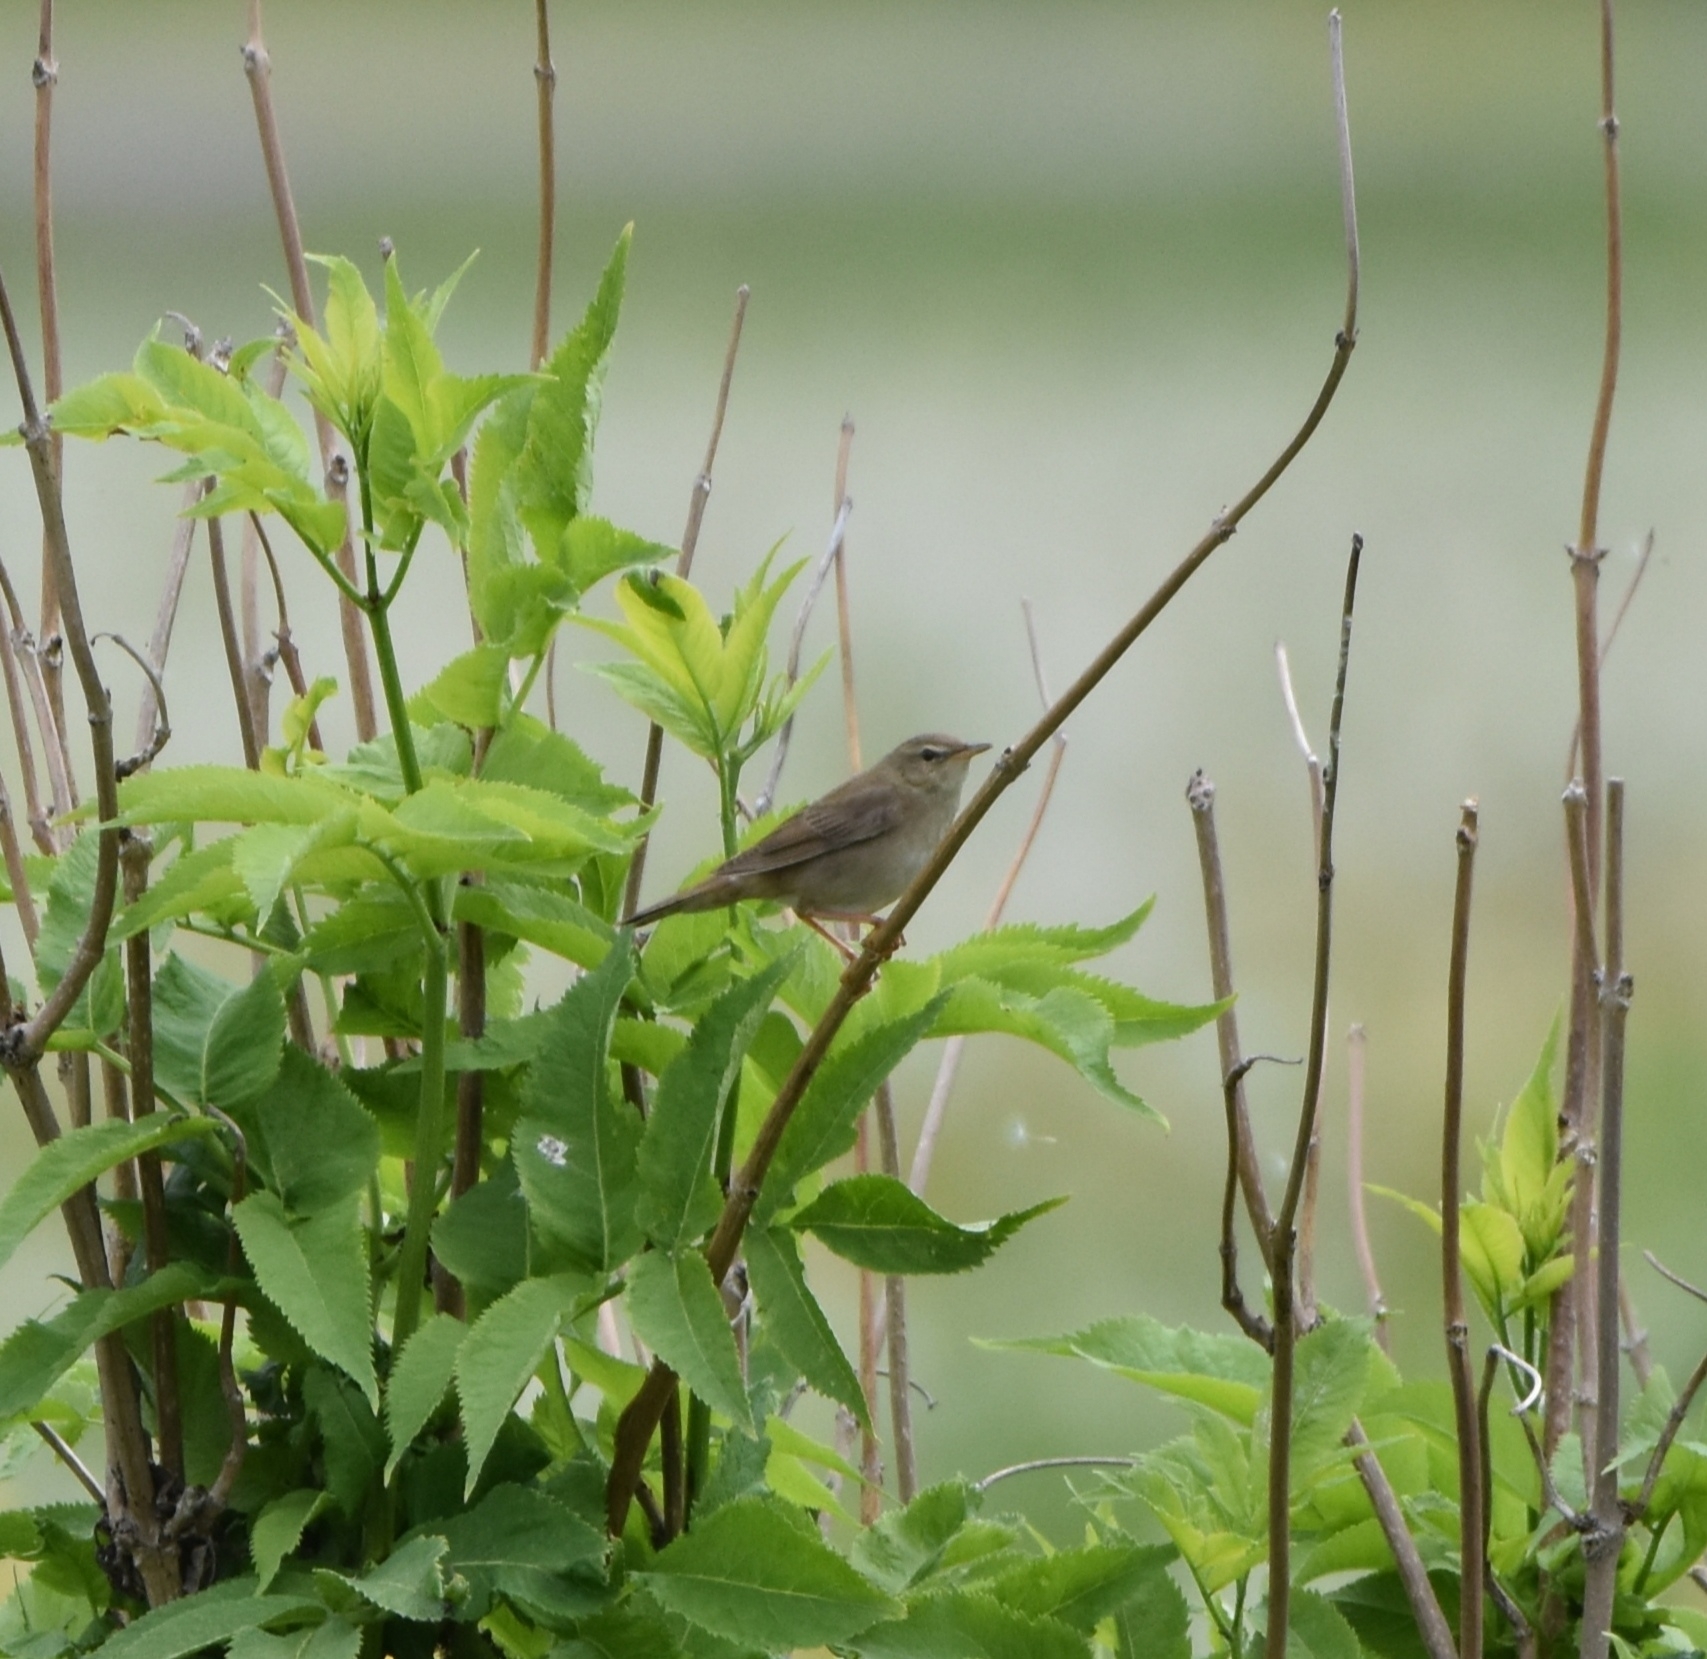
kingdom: Animalia
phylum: Chordata
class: Aves
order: Passeriformes
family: Locustellidae
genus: Locustella
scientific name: Locustella ochotensis
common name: Middendorff's grasshopper-warbler
